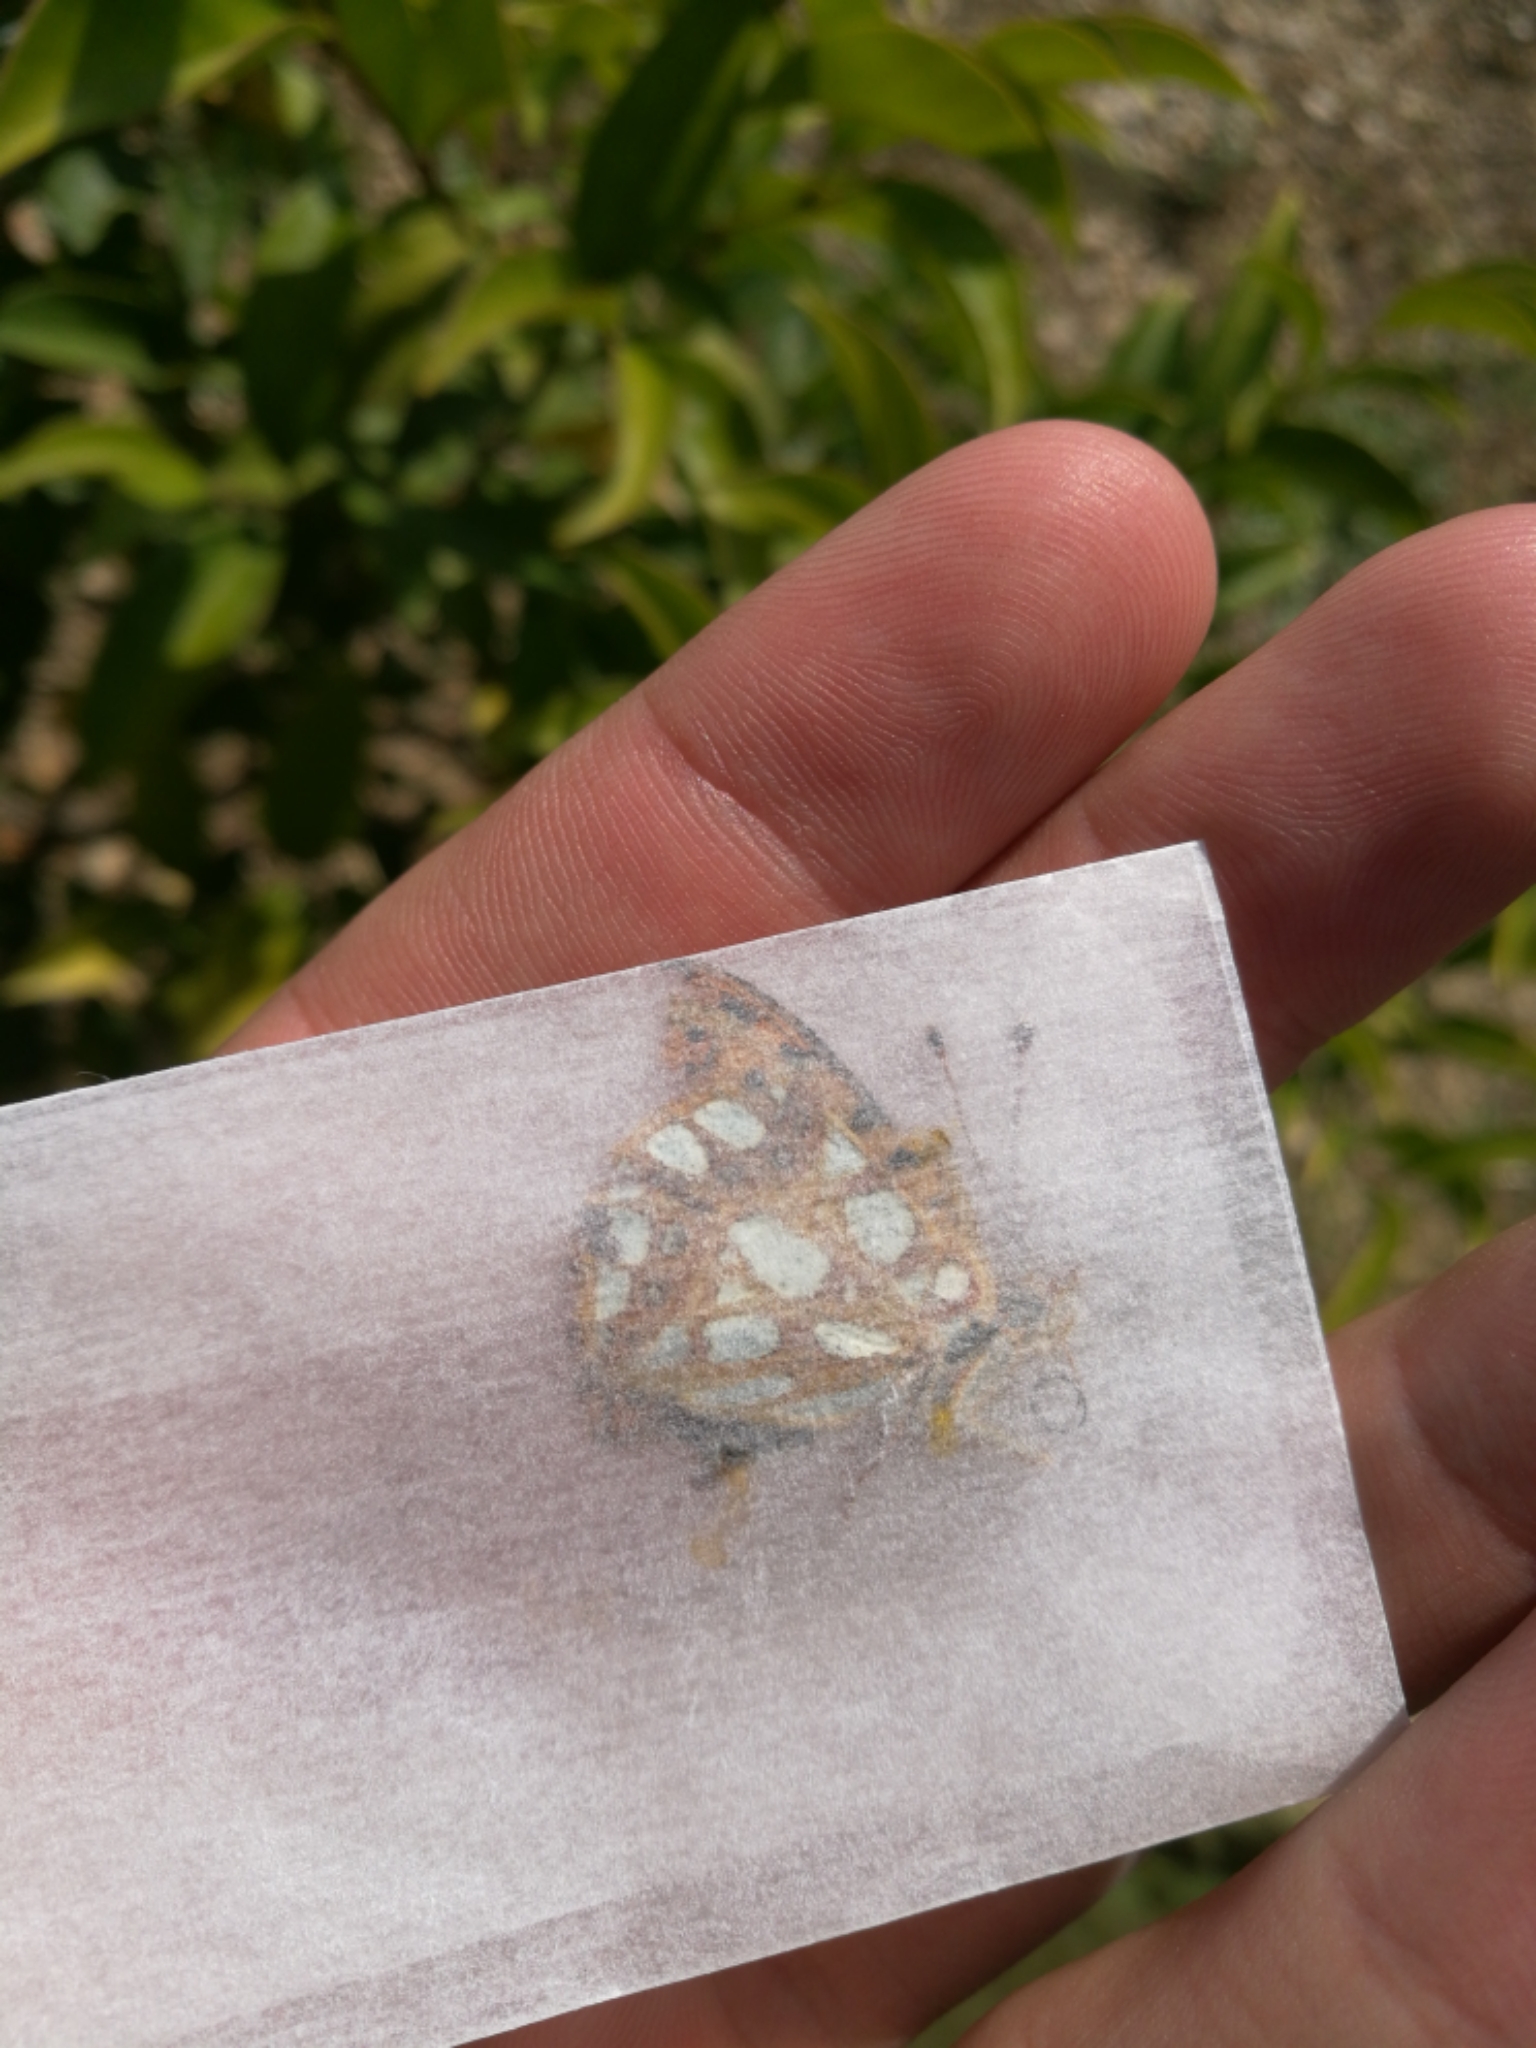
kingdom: Animalia
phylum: Arthropoda
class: Insecta
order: Lepidoptera
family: Nymphalidae
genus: Issoria
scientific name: Issoria lathonia
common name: Queen of spain fritillary
